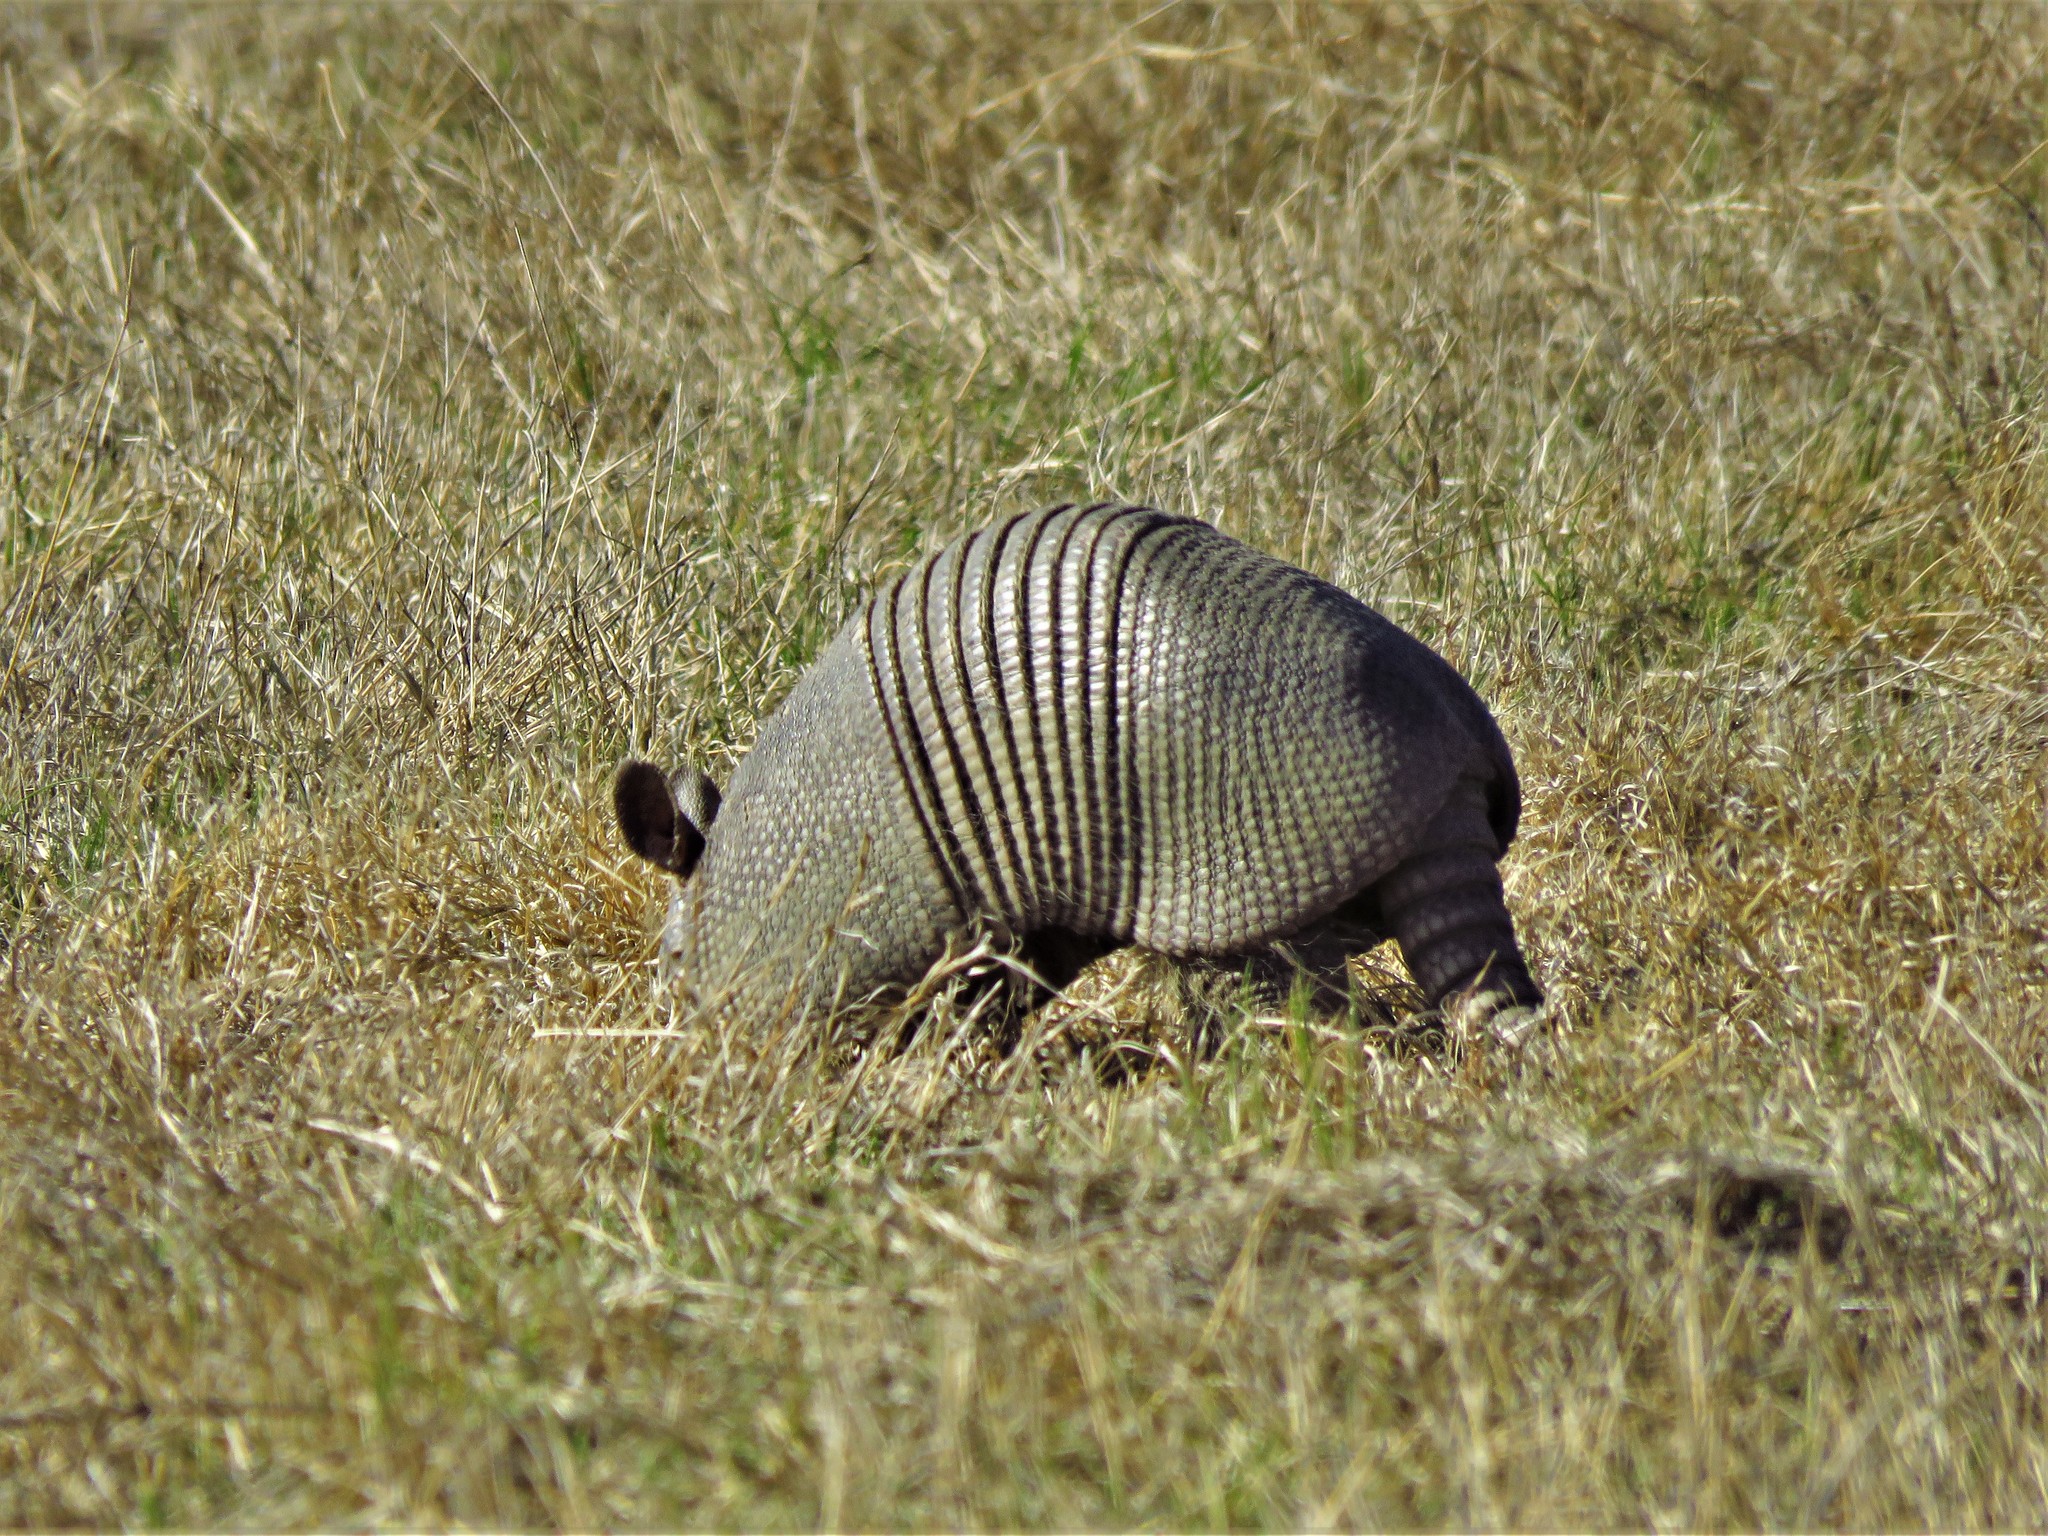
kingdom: Animalia
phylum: Chordata
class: Mammalia
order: Cingulata
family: Dasypodidae
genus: Dasypus
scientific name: Dasypus novemcinctus
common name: Nine-banded armadillo
